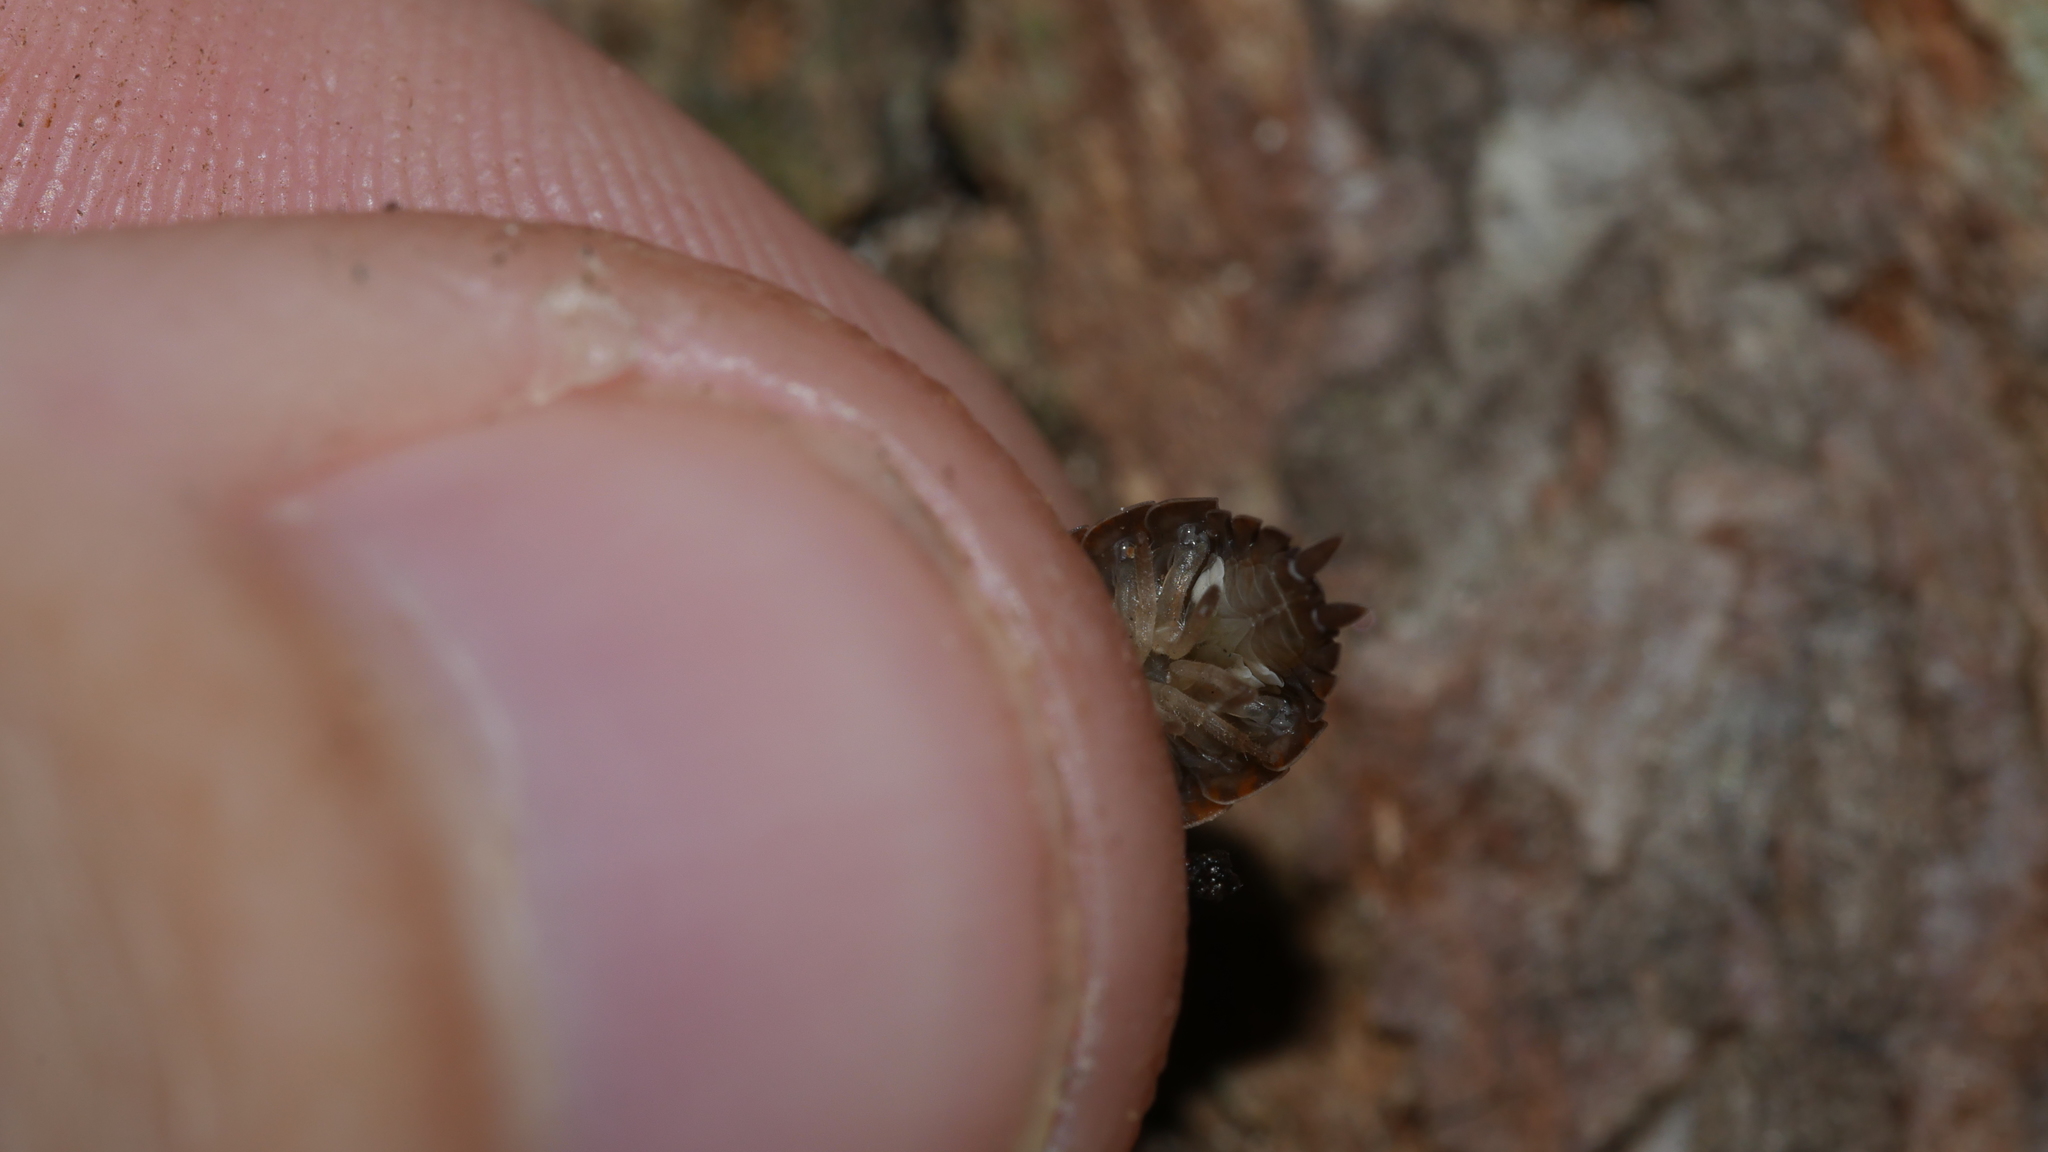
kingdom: Animalia
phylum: Arthropoda
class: Malacostraca
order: Isopoda
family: Porcellionidae
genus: Porcellio
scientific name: Porcellio scaber
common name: Common rough woodlouse
